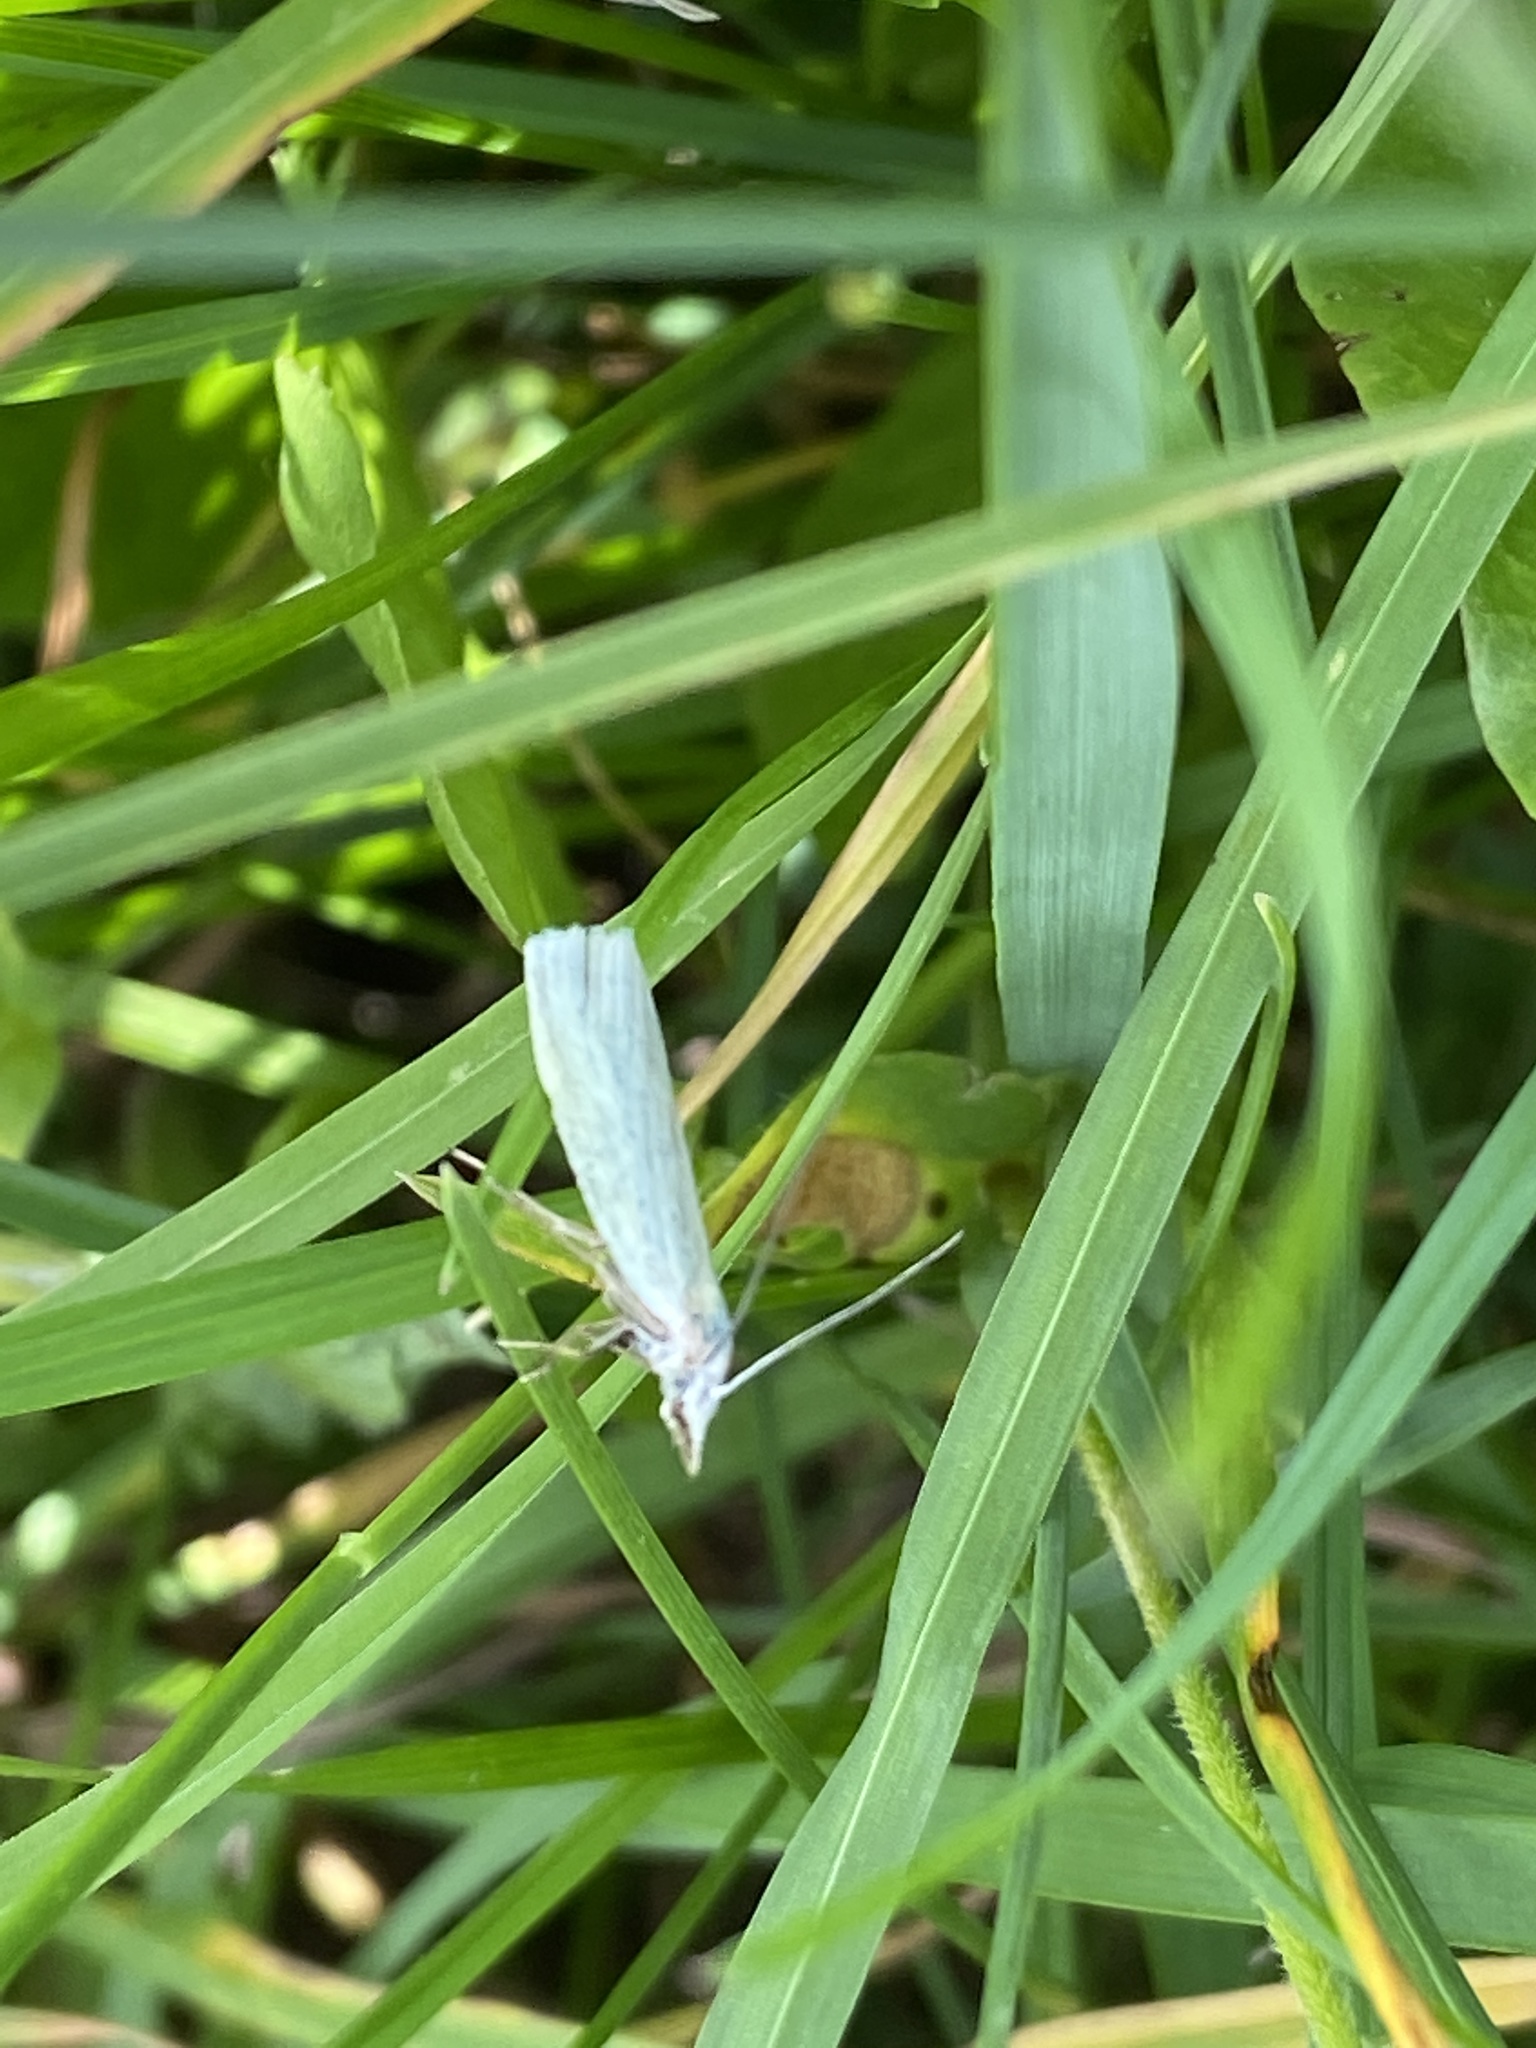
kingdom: Animalia
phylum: Arthropoda
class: Insecta
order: Lepidoptera
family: Crambidae
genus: Agriphila
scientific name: Agriphila straminella
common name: Straw grass-veneer
